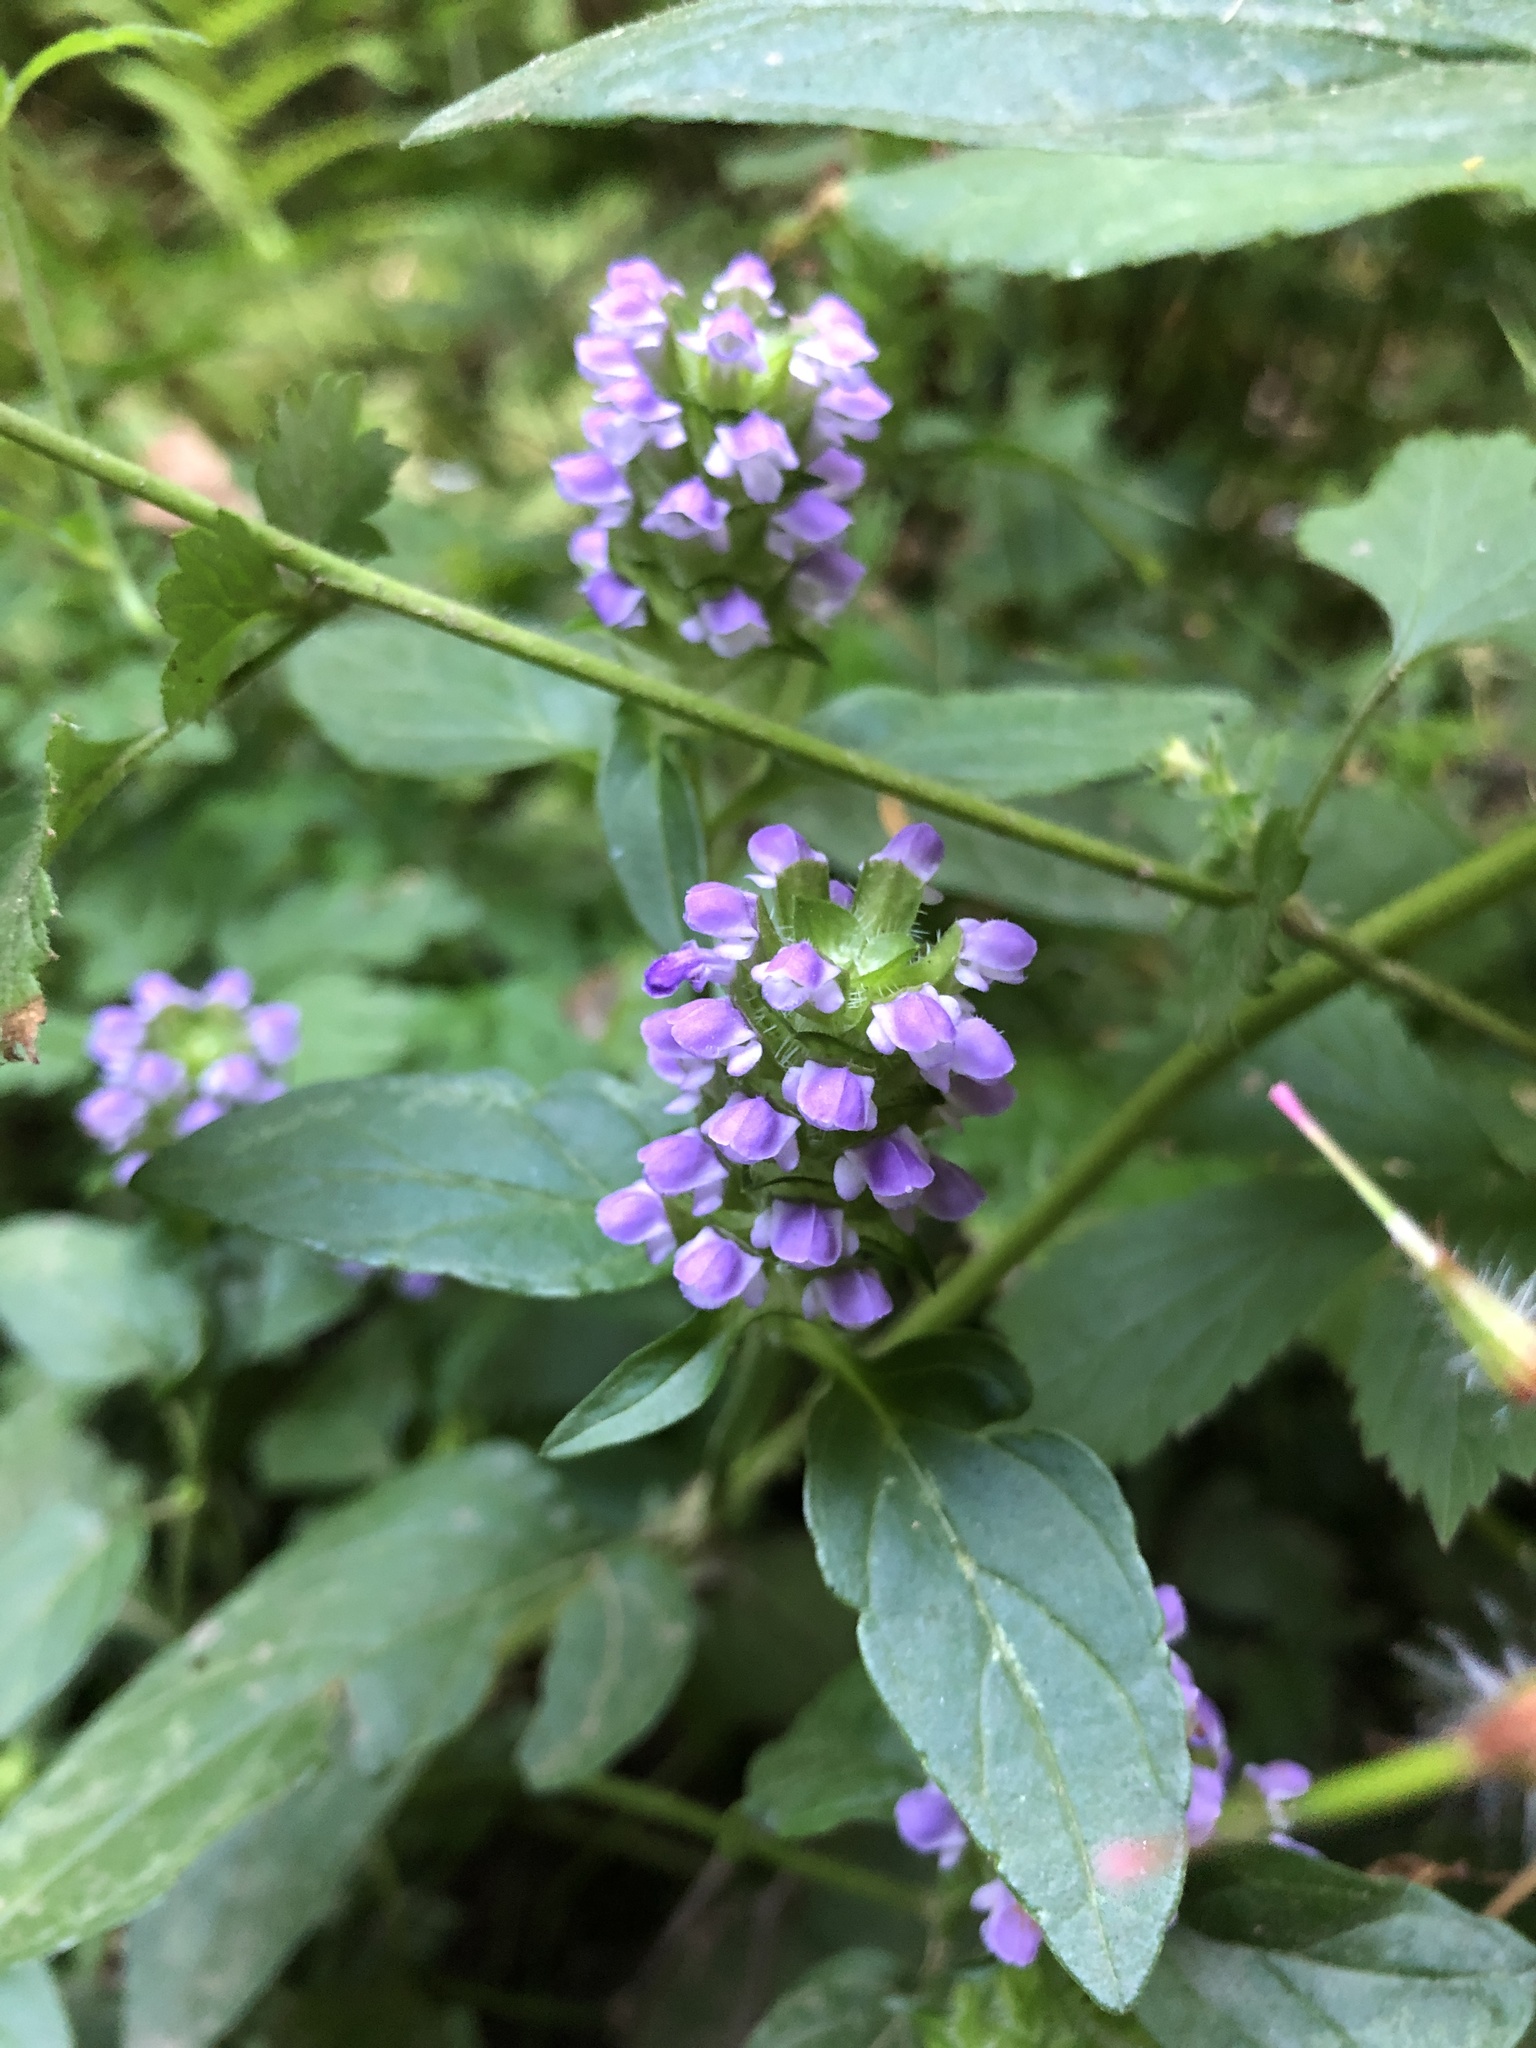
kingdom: Plantae
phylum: Tracheophyta
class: Magnoliopsida
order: Lamiales
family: Lamiaceae
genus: Prunella
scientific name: Prunella vulgaris
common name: Heal-all
